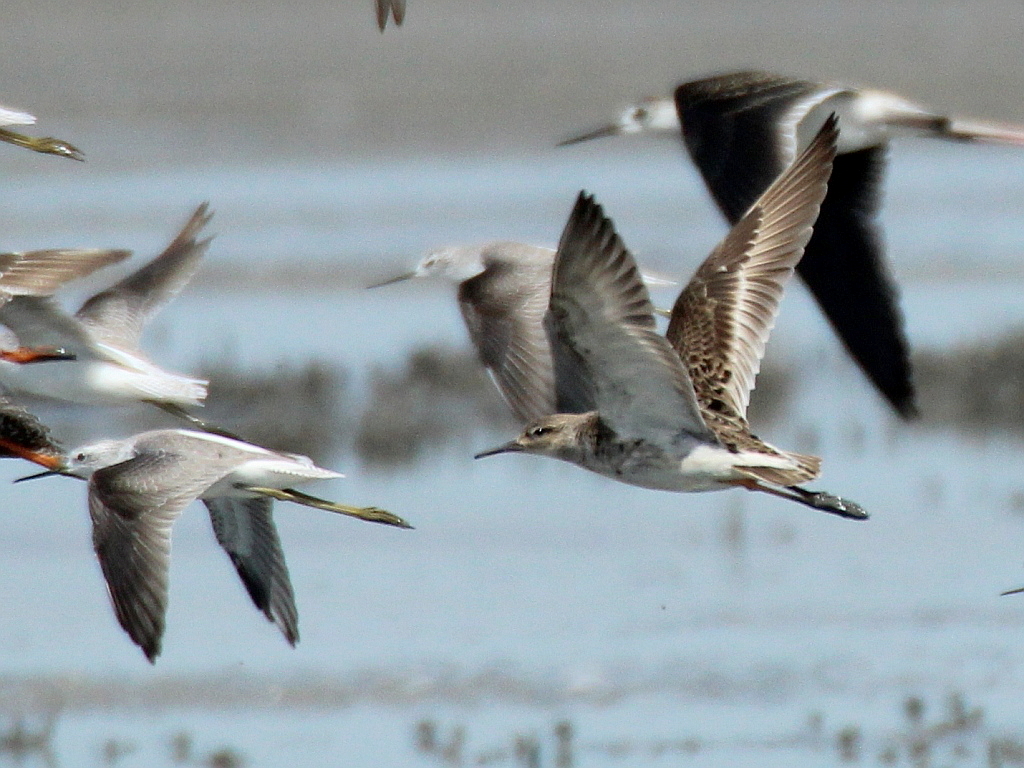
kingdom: Animalia
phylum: Chordata
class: Aves
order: Charadriiformes
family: Scolopacidae
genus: Calidris
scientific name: Calidris pugnax
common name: Ruff
